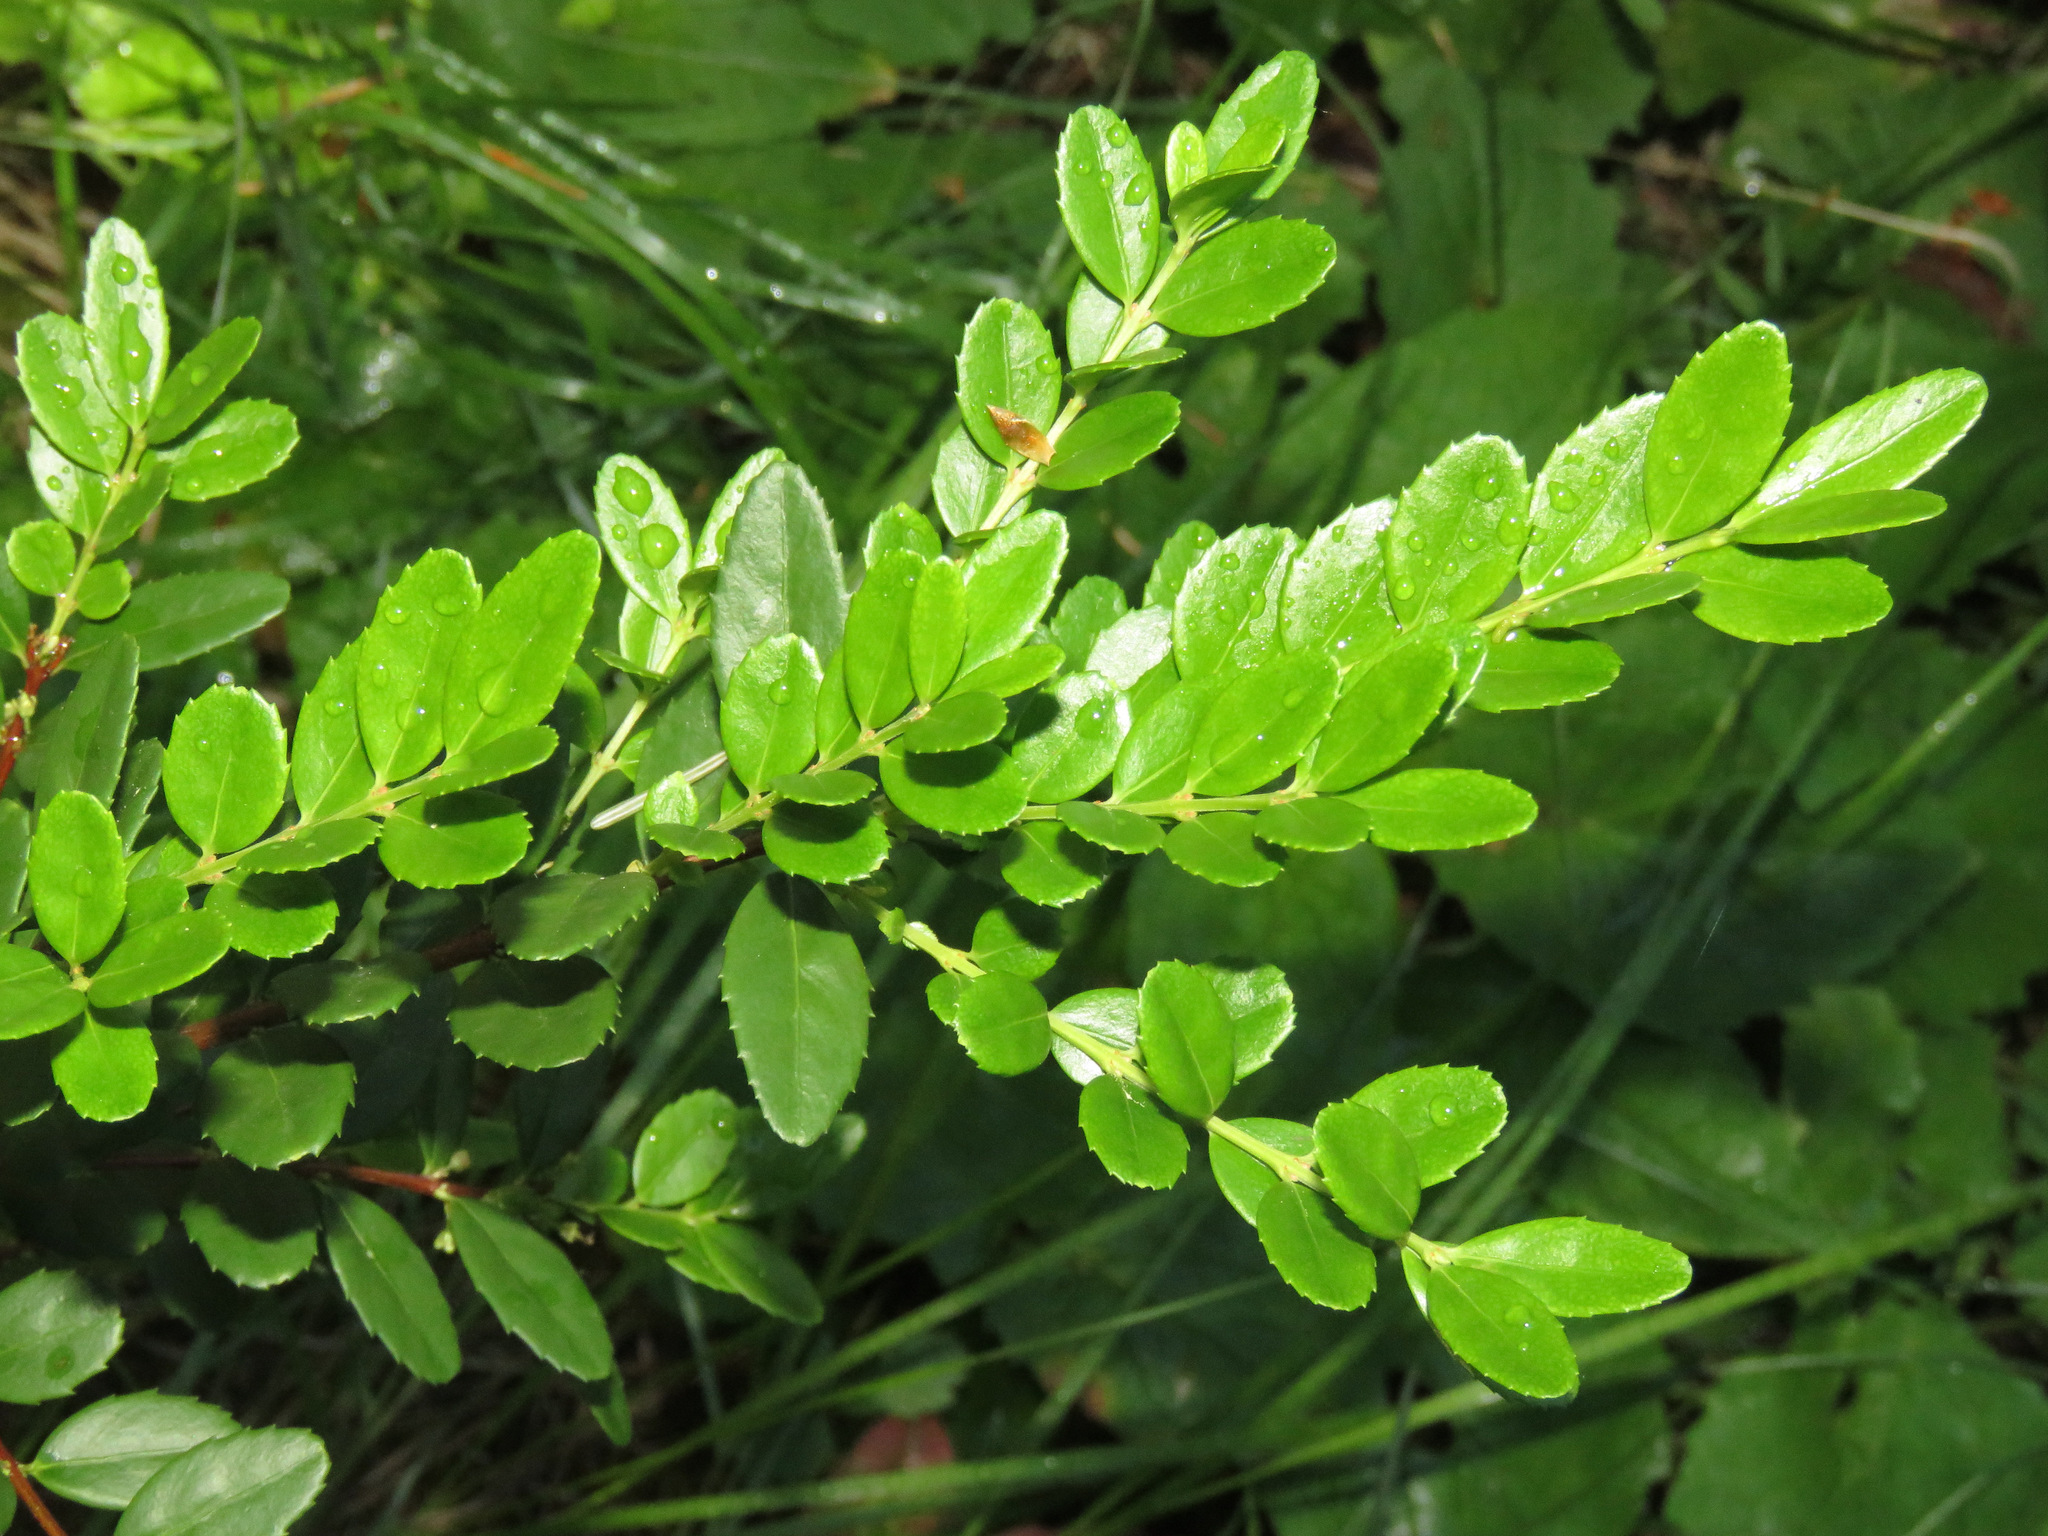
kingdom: Plantae
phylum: Tracheophyta
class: Magnoliopsida
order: Celastrales
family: Celastraceae
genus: Paxistima
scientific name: Paxistima myrsinites
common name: Mountain-lover
